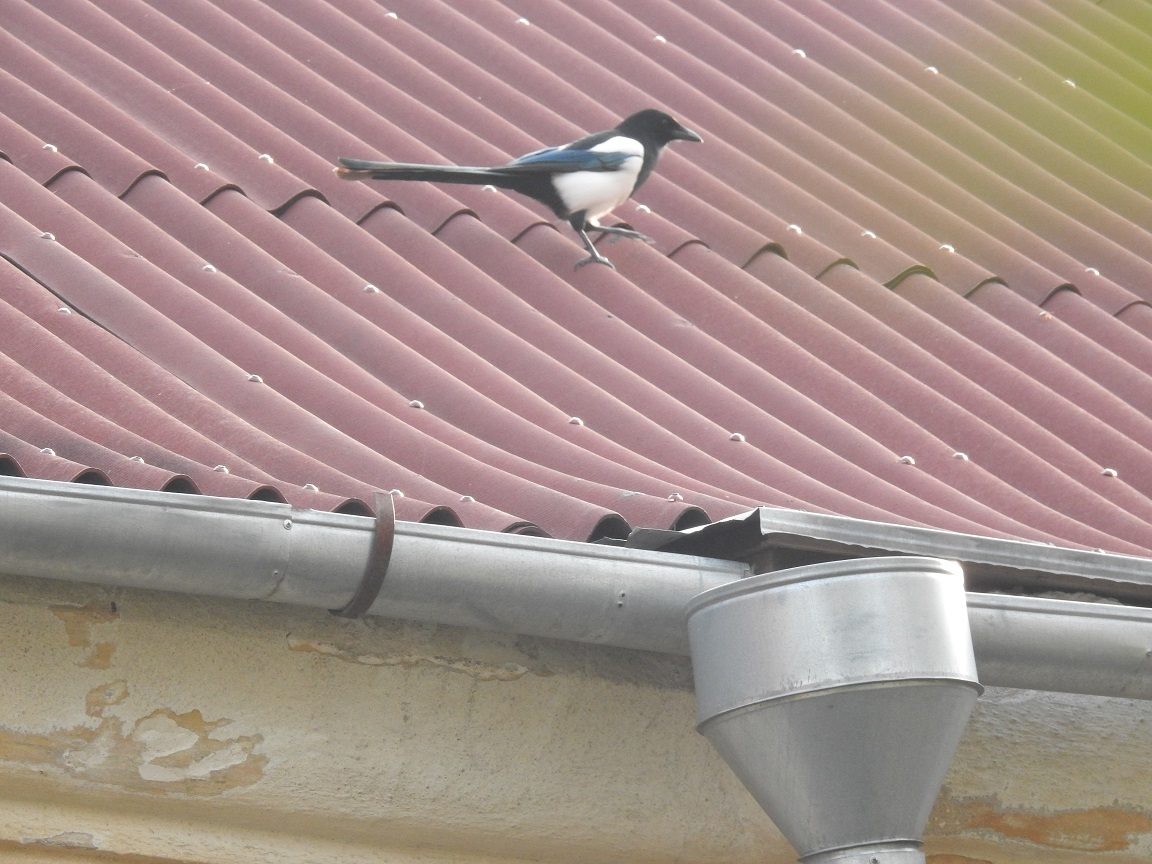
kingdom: Animalia
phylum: Chordata
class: Aves
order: Passeriformes
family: Corvidae
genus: Pica
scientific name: Pica pica
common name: Eurasian magpie
